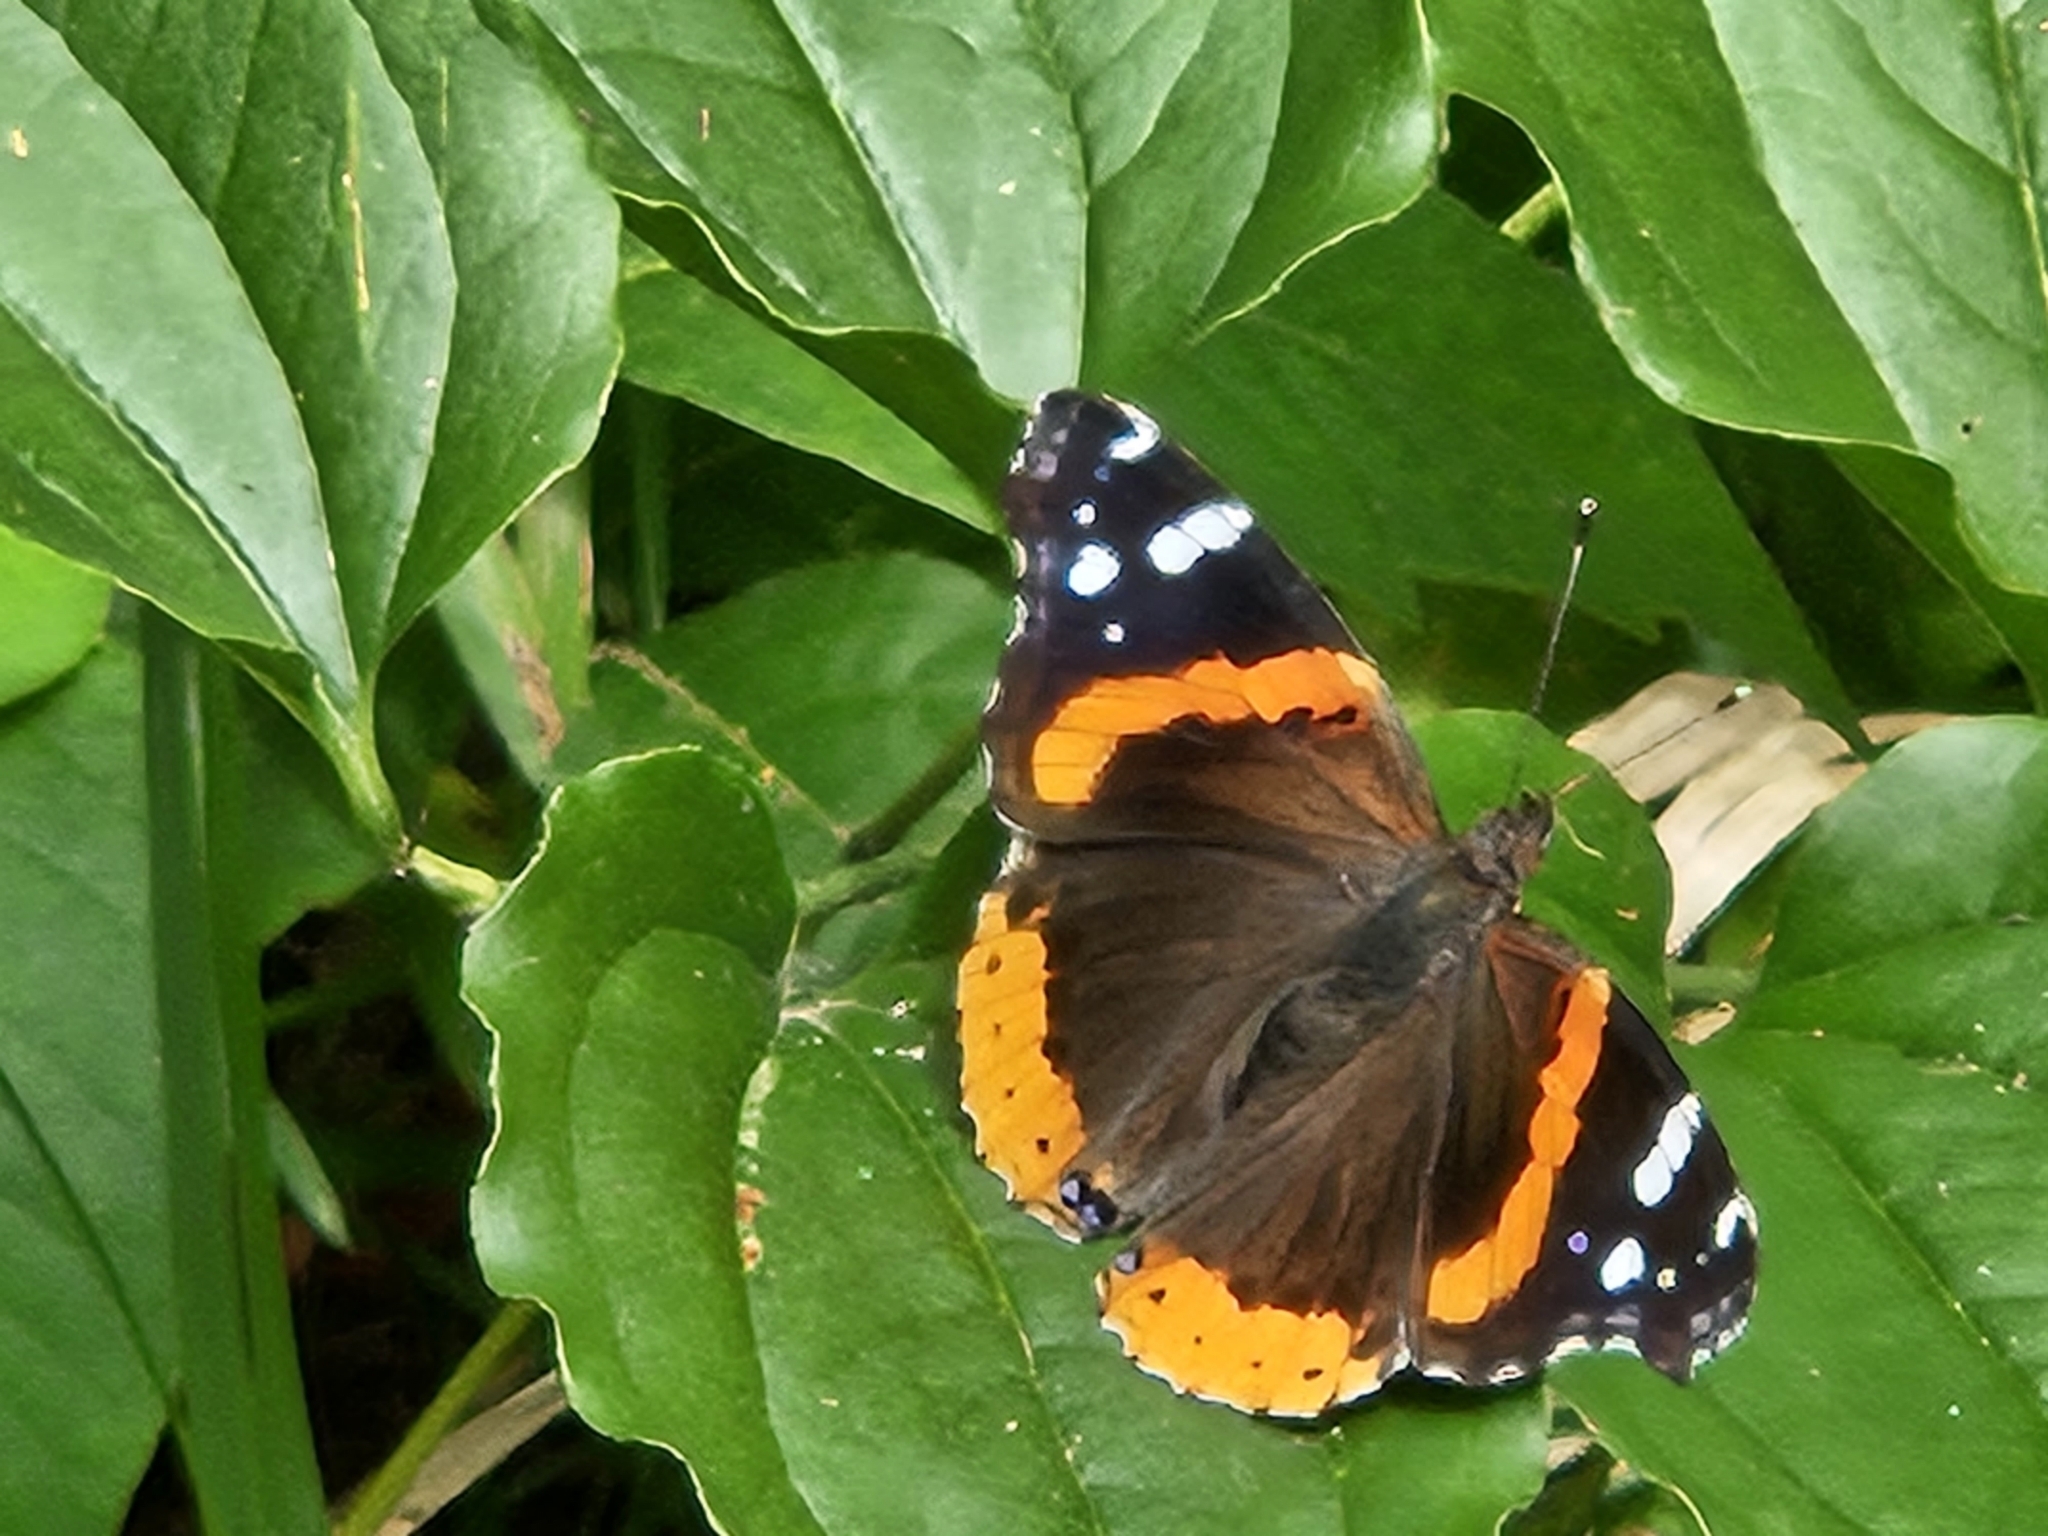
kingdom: Animalia
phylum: Arthropoda
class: Insecta
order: Lepidoptera
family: Nymphalidae
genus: Vanessa
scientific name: Vanessa atalanta
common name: Red admiral
